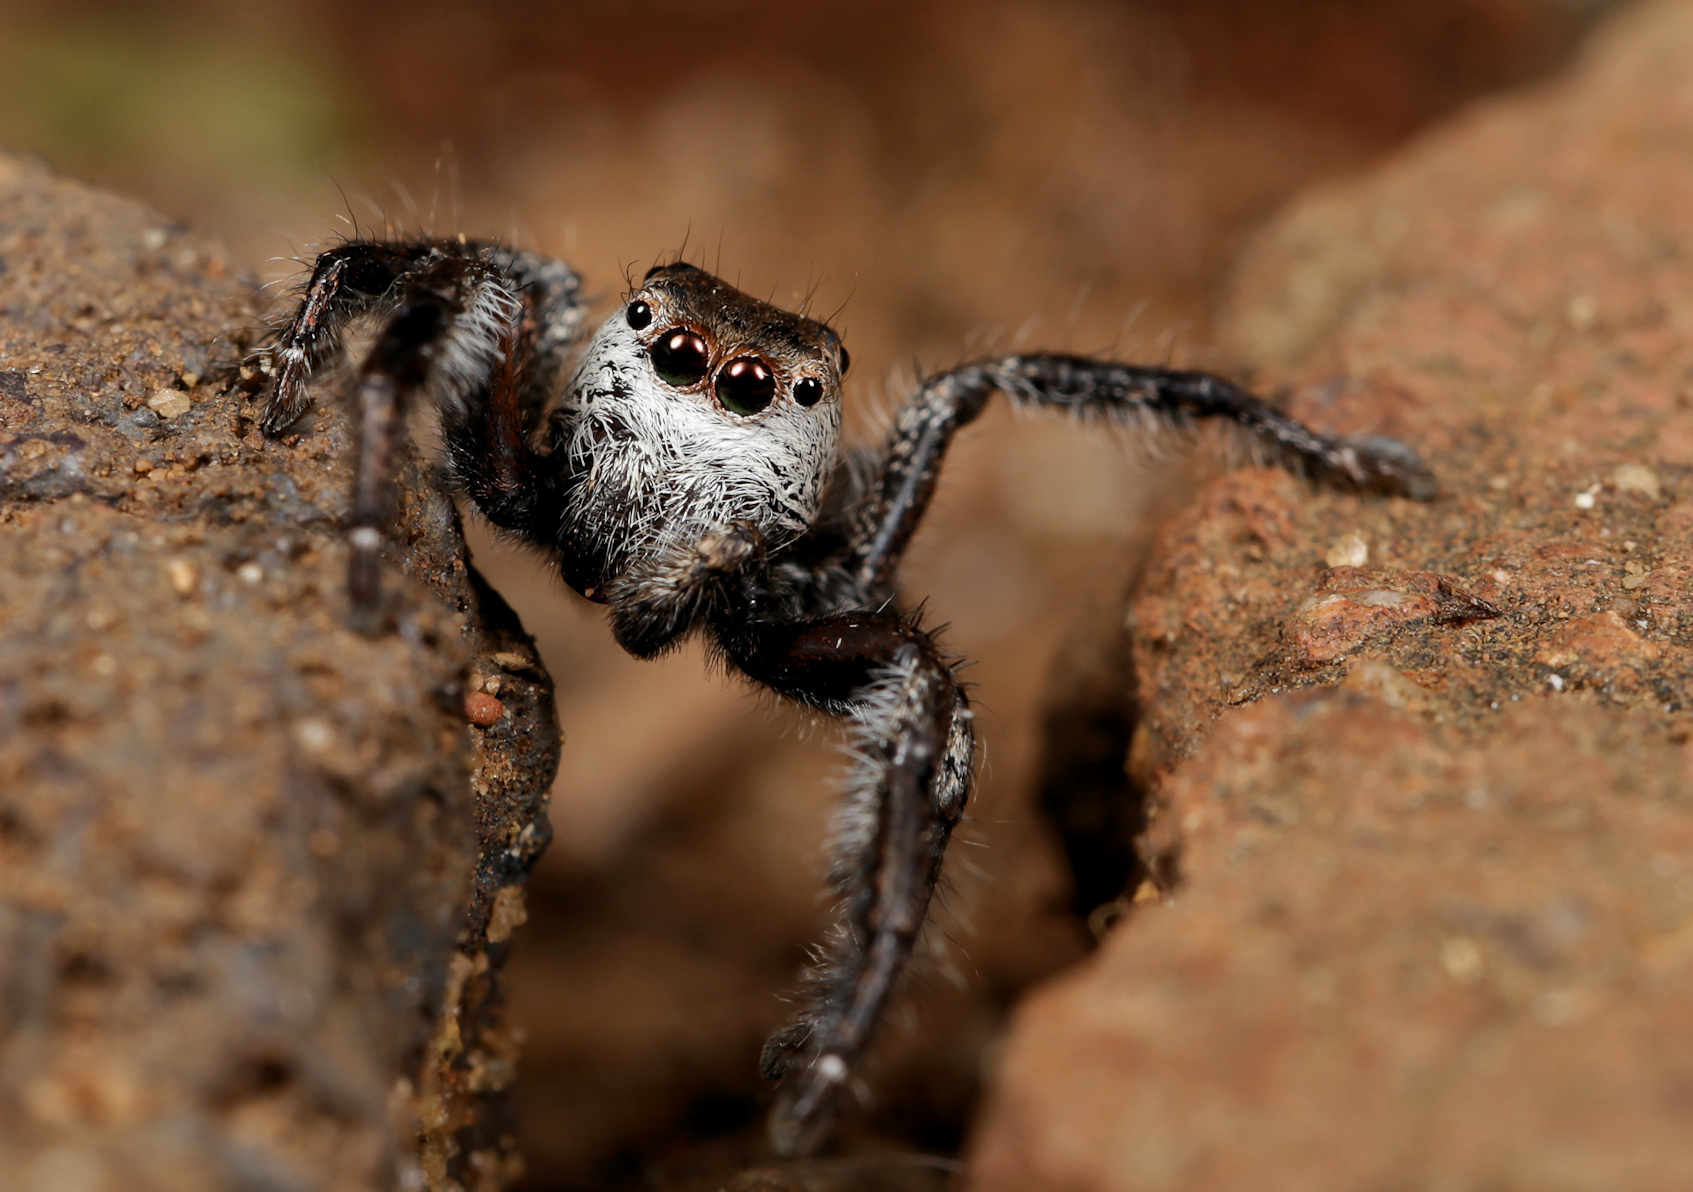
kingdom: Animalia
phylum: Arthropoda
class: Arachnida
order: Araneae
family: Salticidae
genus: Hyllus
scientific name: Hyllus brevitarsis
